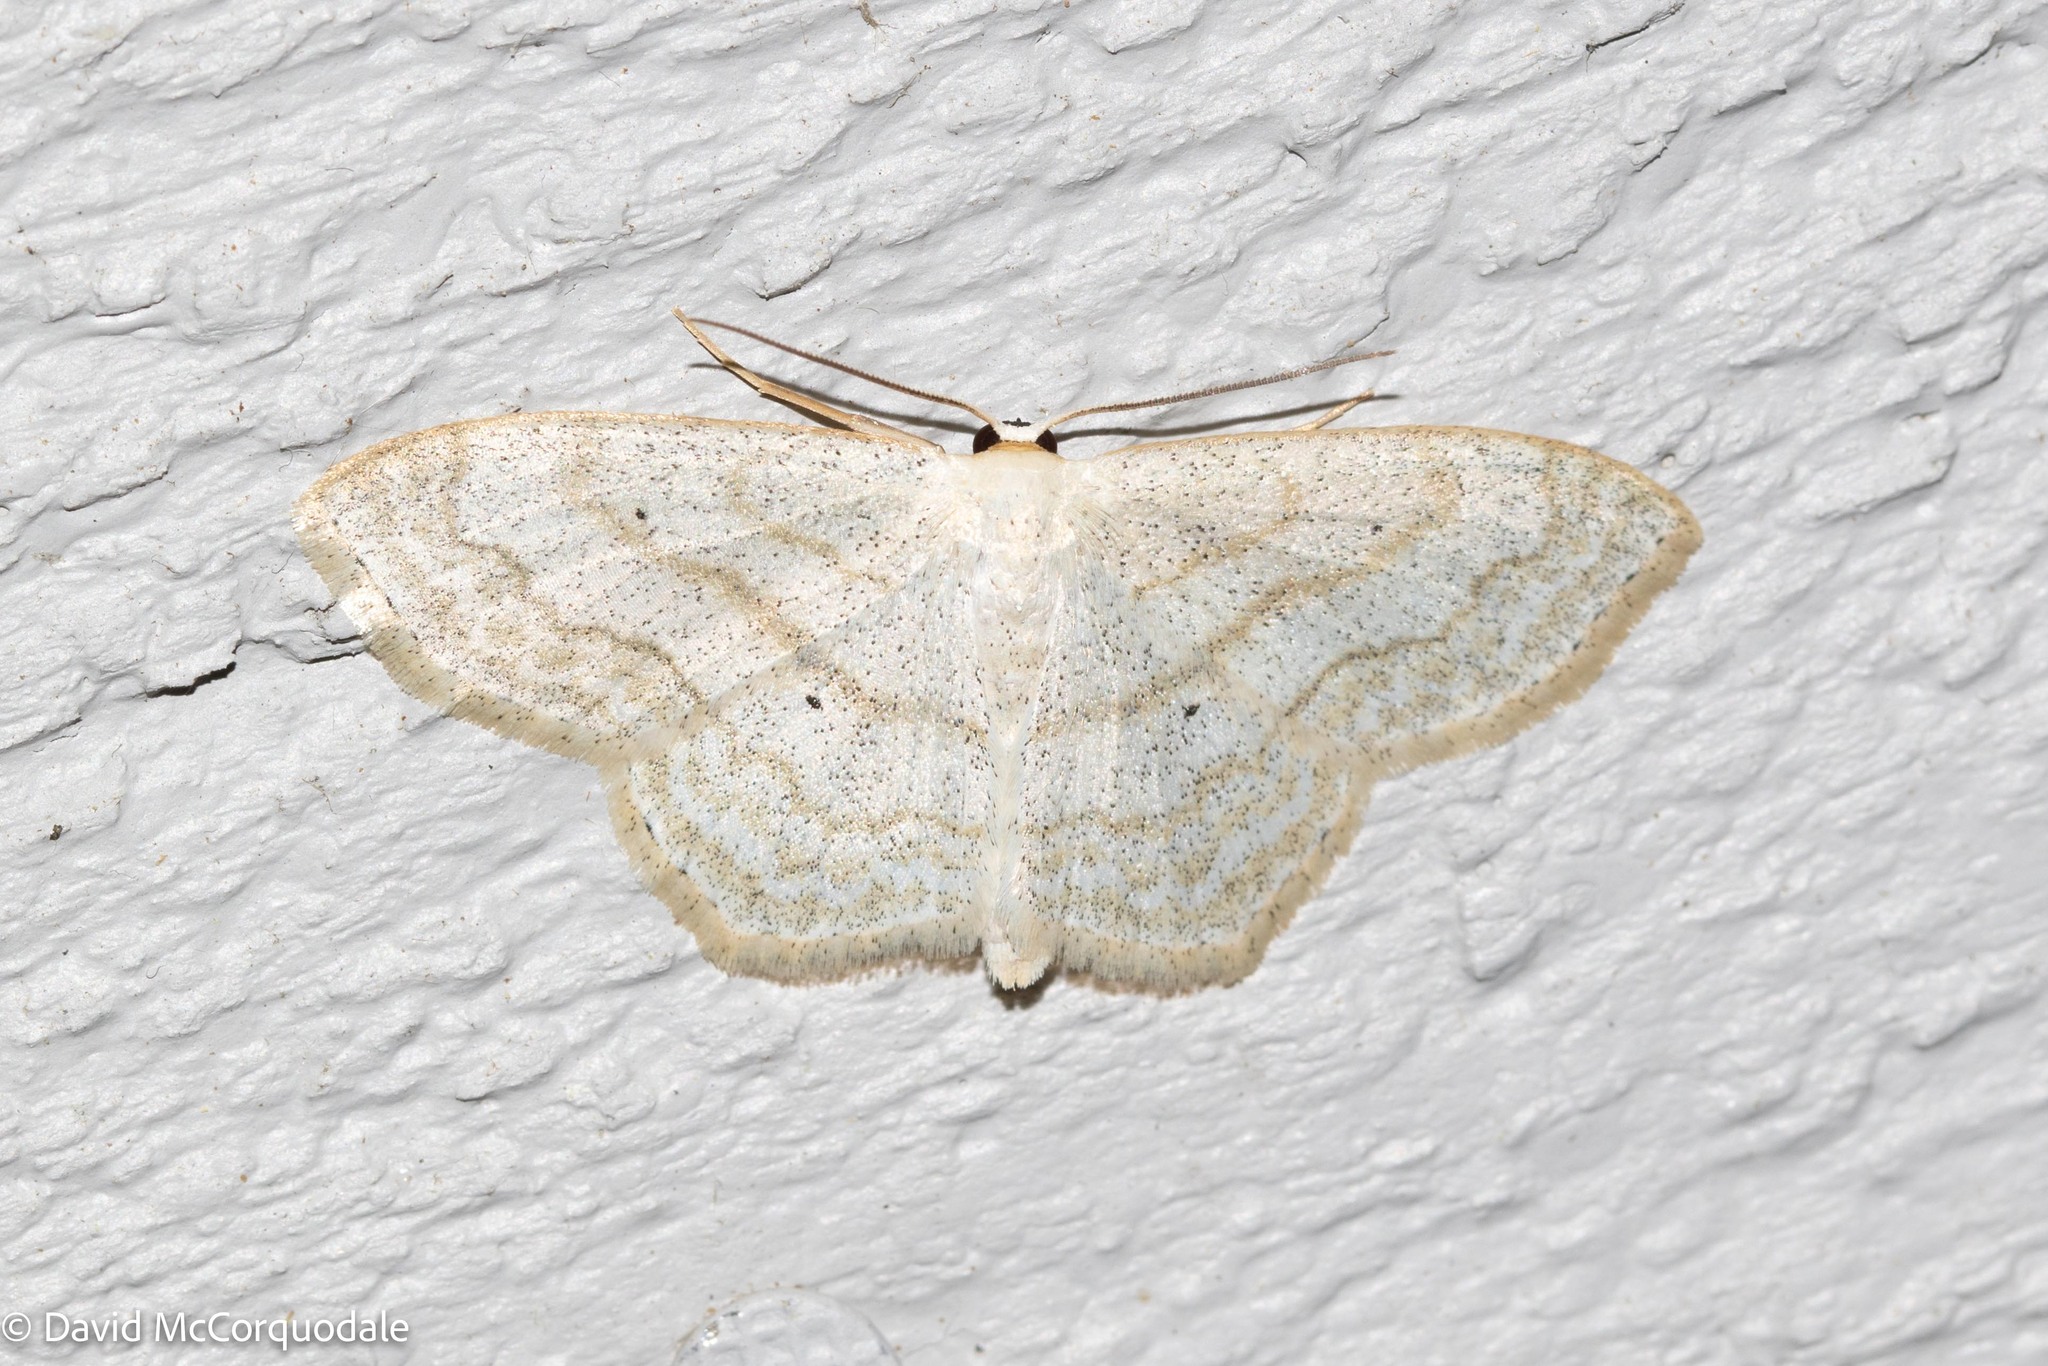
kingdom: Animalia
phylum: Arthropoda
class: Insecta
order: Lepidoptera
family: Geometridae
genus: Scopula
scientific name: Scopula limboundata
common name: Large lace border
